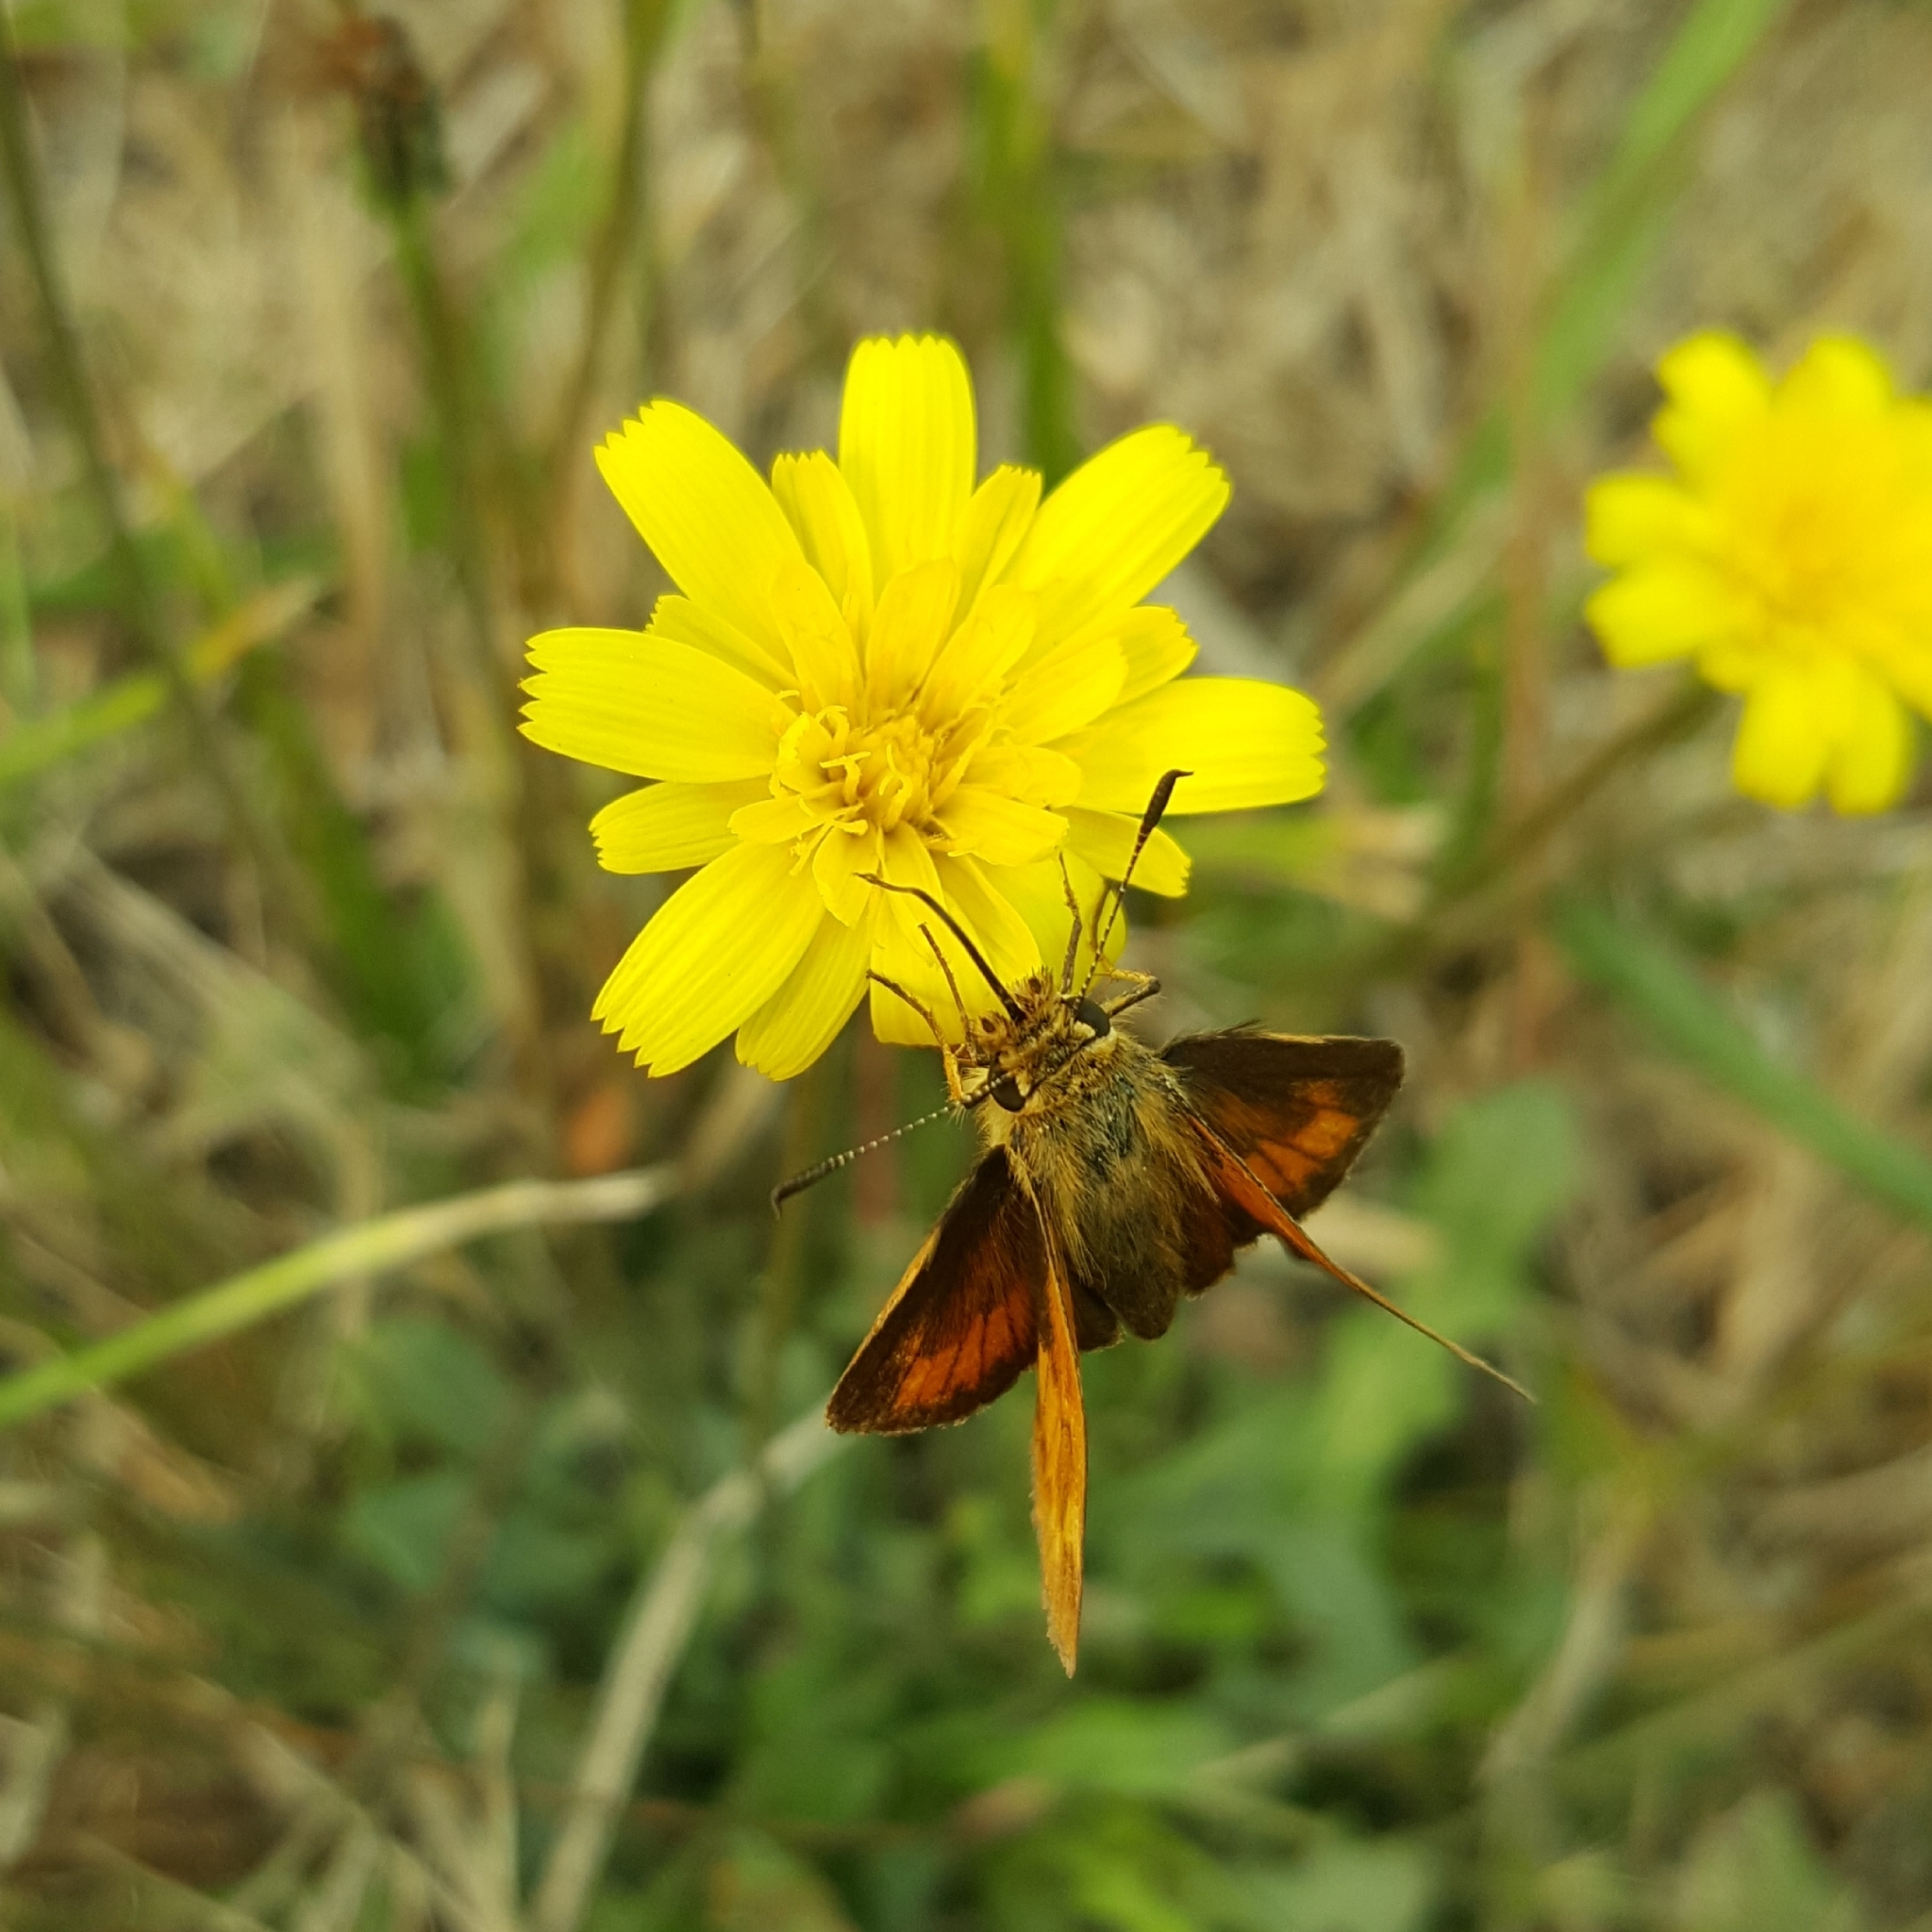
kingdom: Animalia
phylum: Arthropoda
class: Insecta
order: Lepidoptera
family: Hesperiidae
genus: Ochlodes
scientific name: Ochlodes sylvanoides
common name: Woodland skipper
